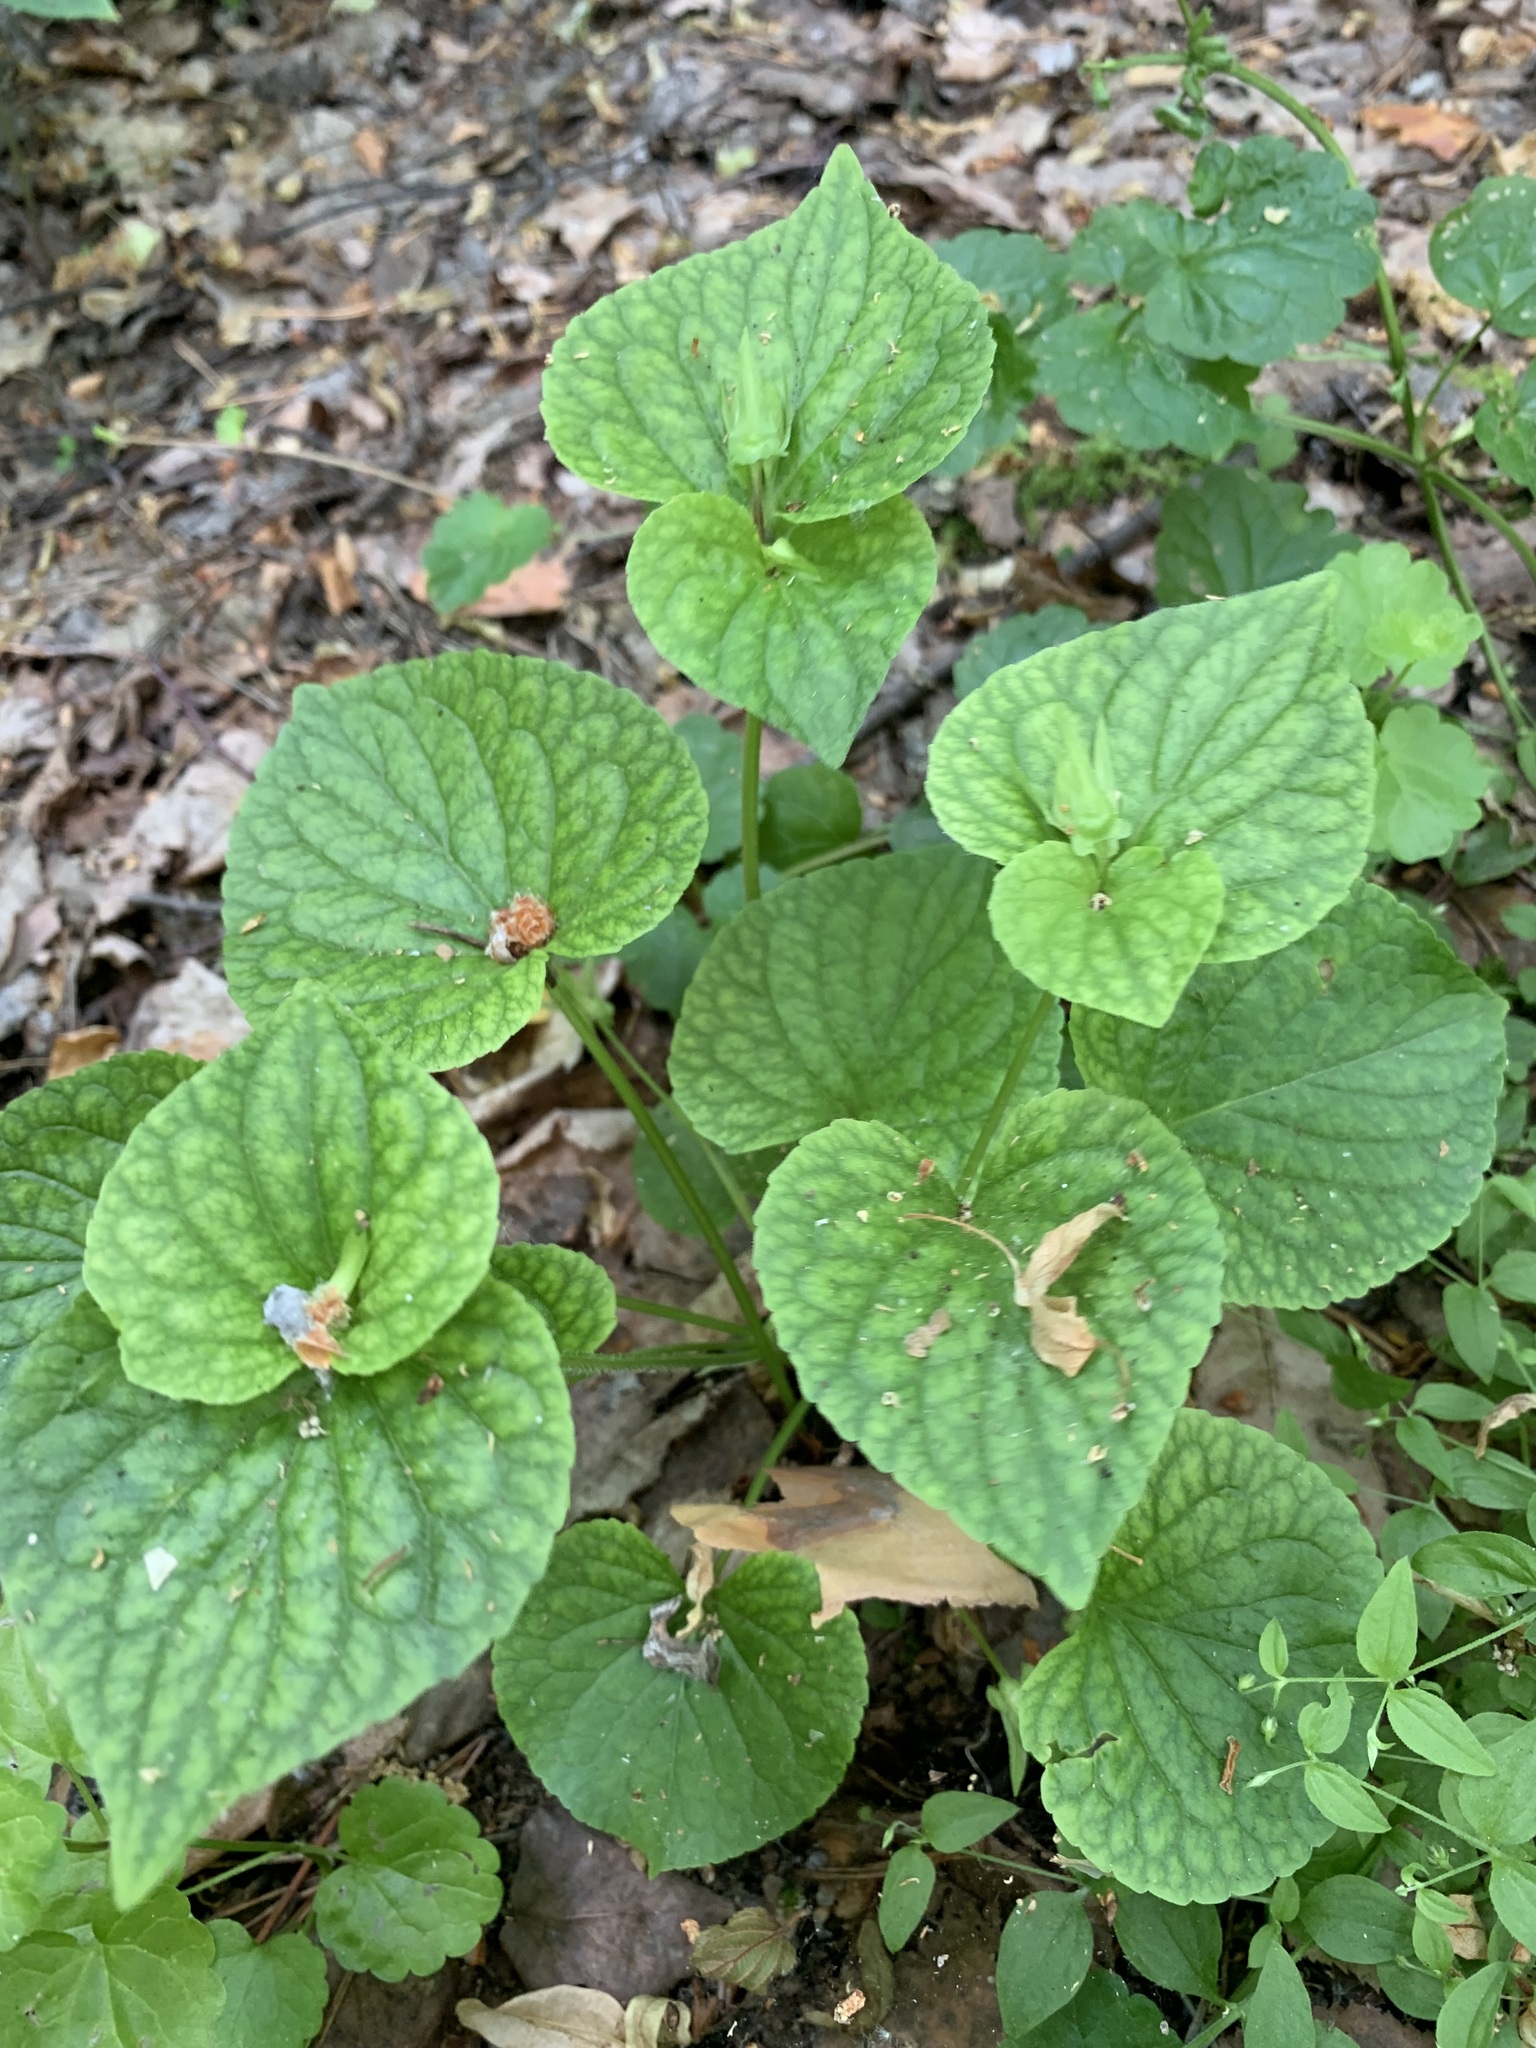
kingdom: Plantae
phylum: Tracheophyta
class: Magnoliopsida
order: Malpighiales
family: Violaceae
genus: Viola
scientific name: Viola mirabilis
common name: Wonder violet
